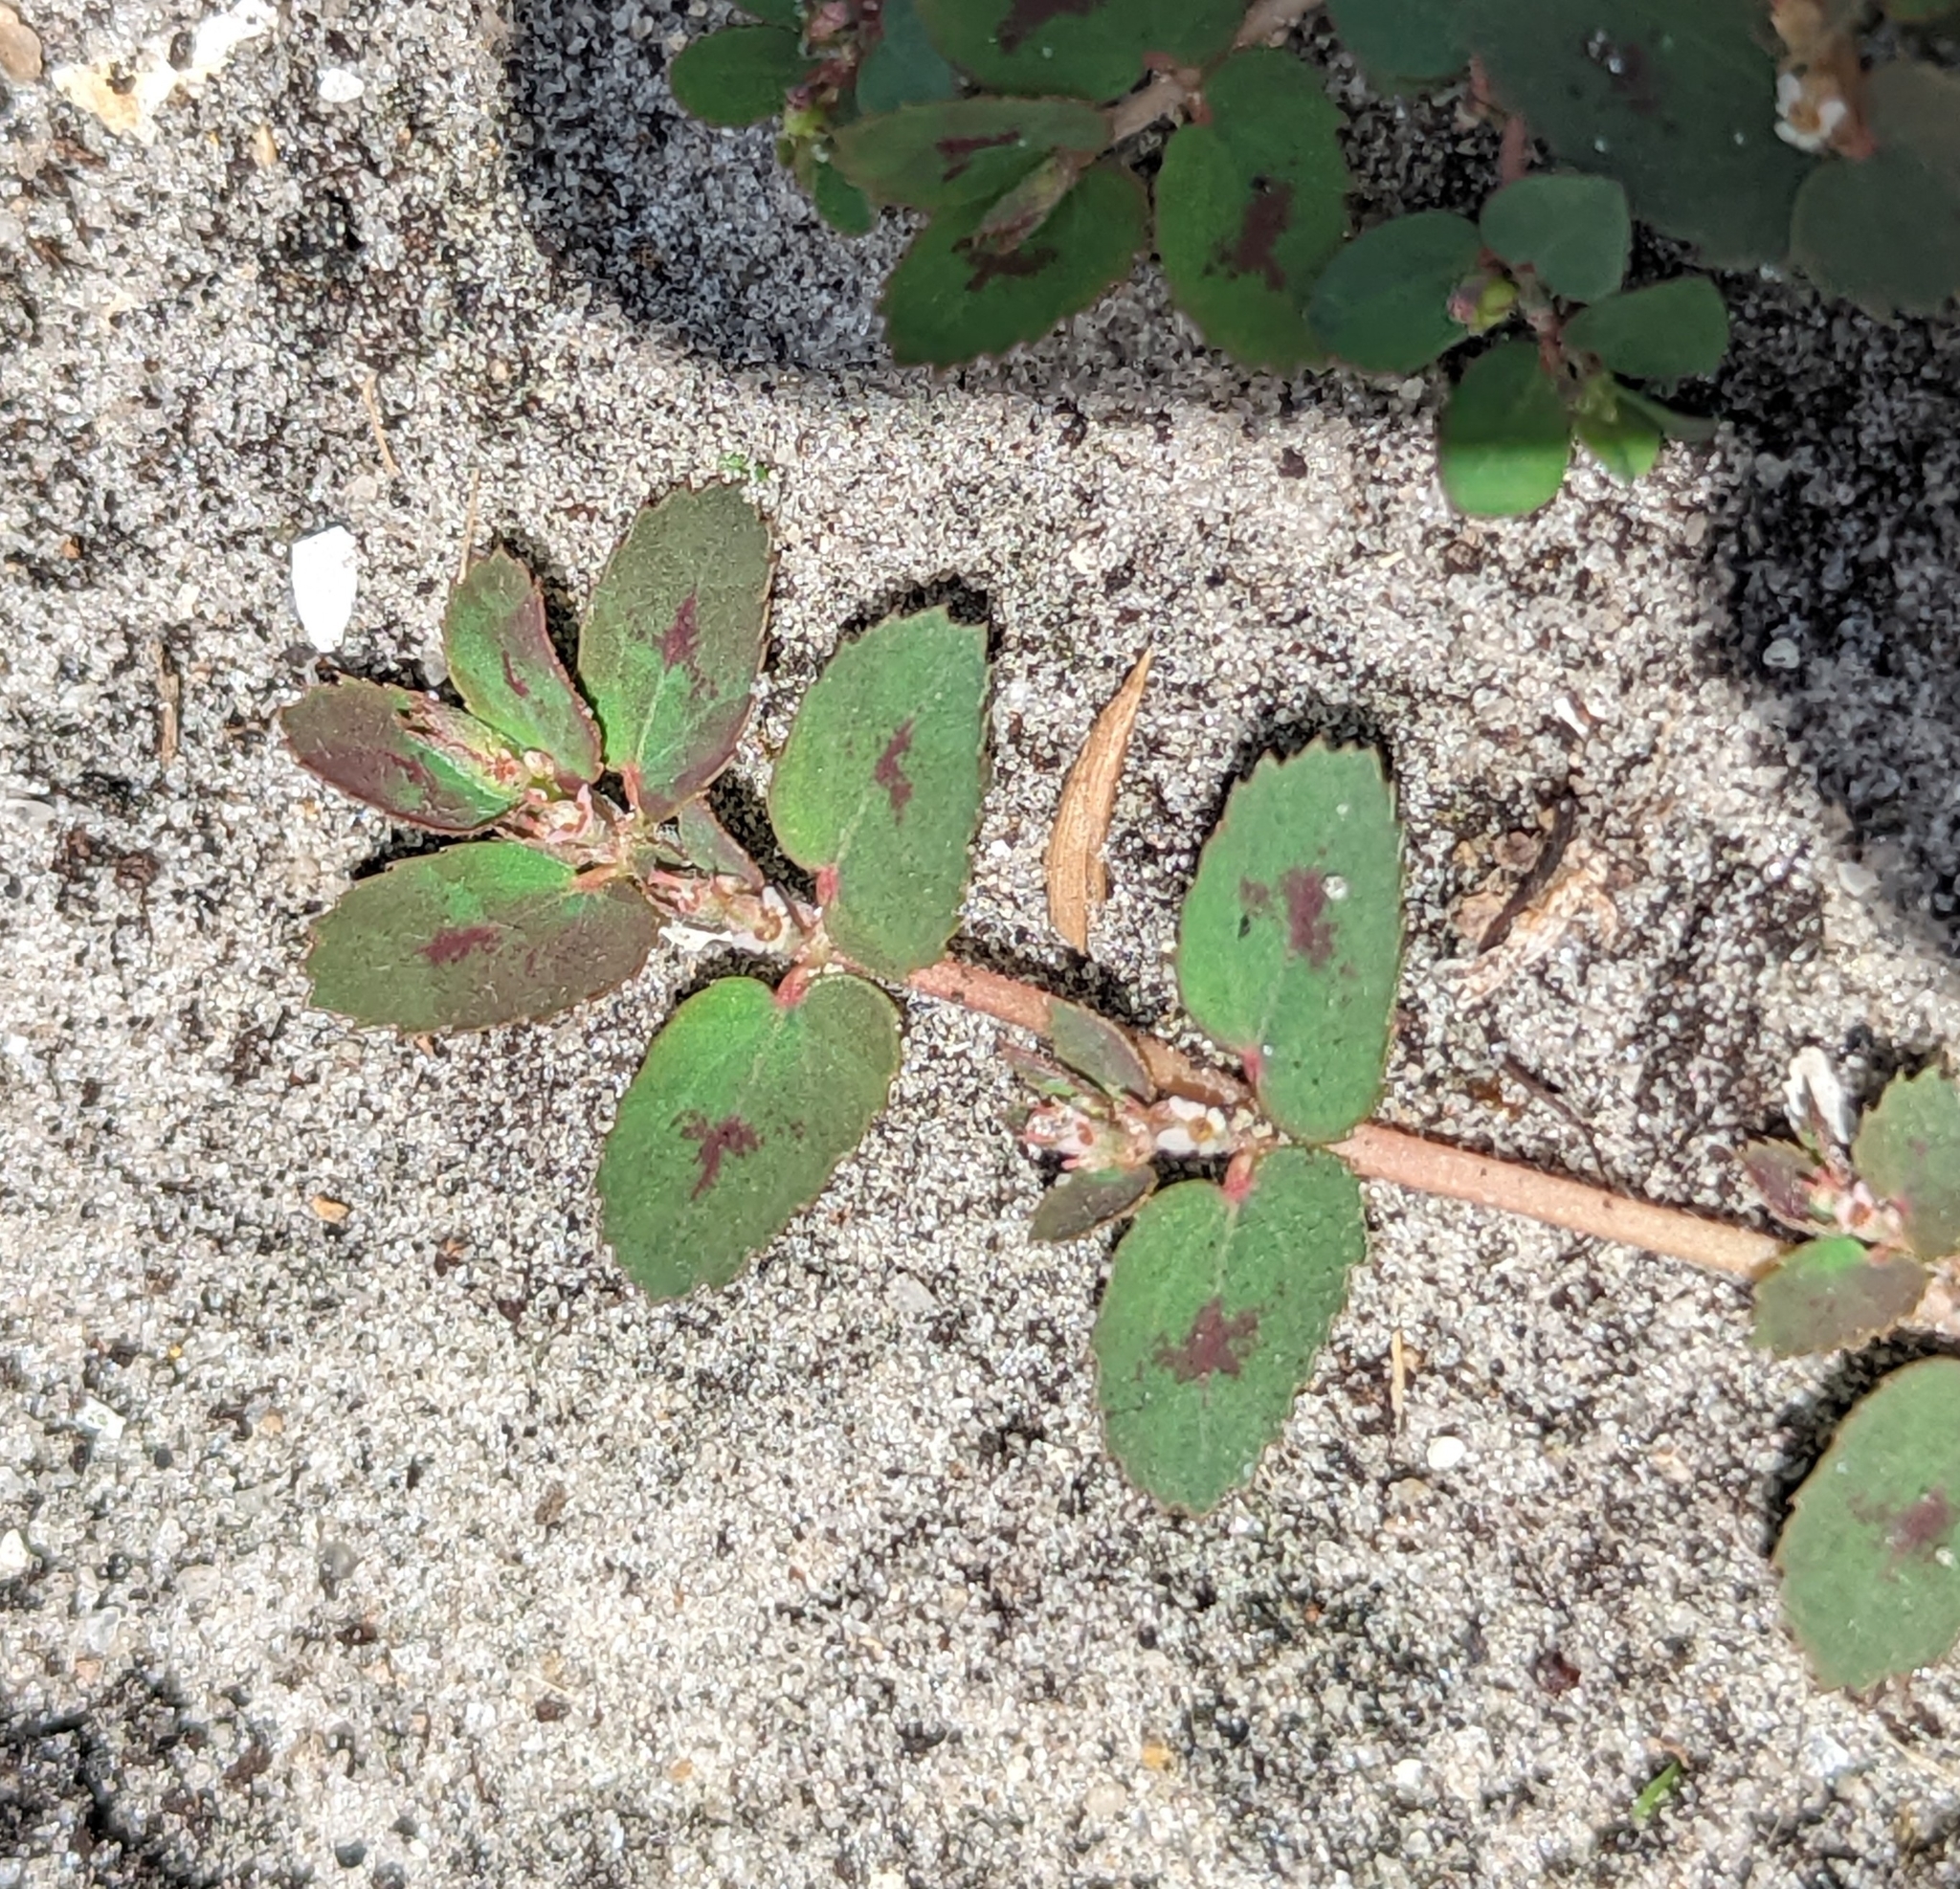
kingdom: Plantae
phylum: Tracheophyta
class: Magnoliopsida
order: Malpighiales
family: Euphorbiaceae
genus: Euphorbia
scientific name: Euphorbia thymifolia
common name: Gulf sandmat
